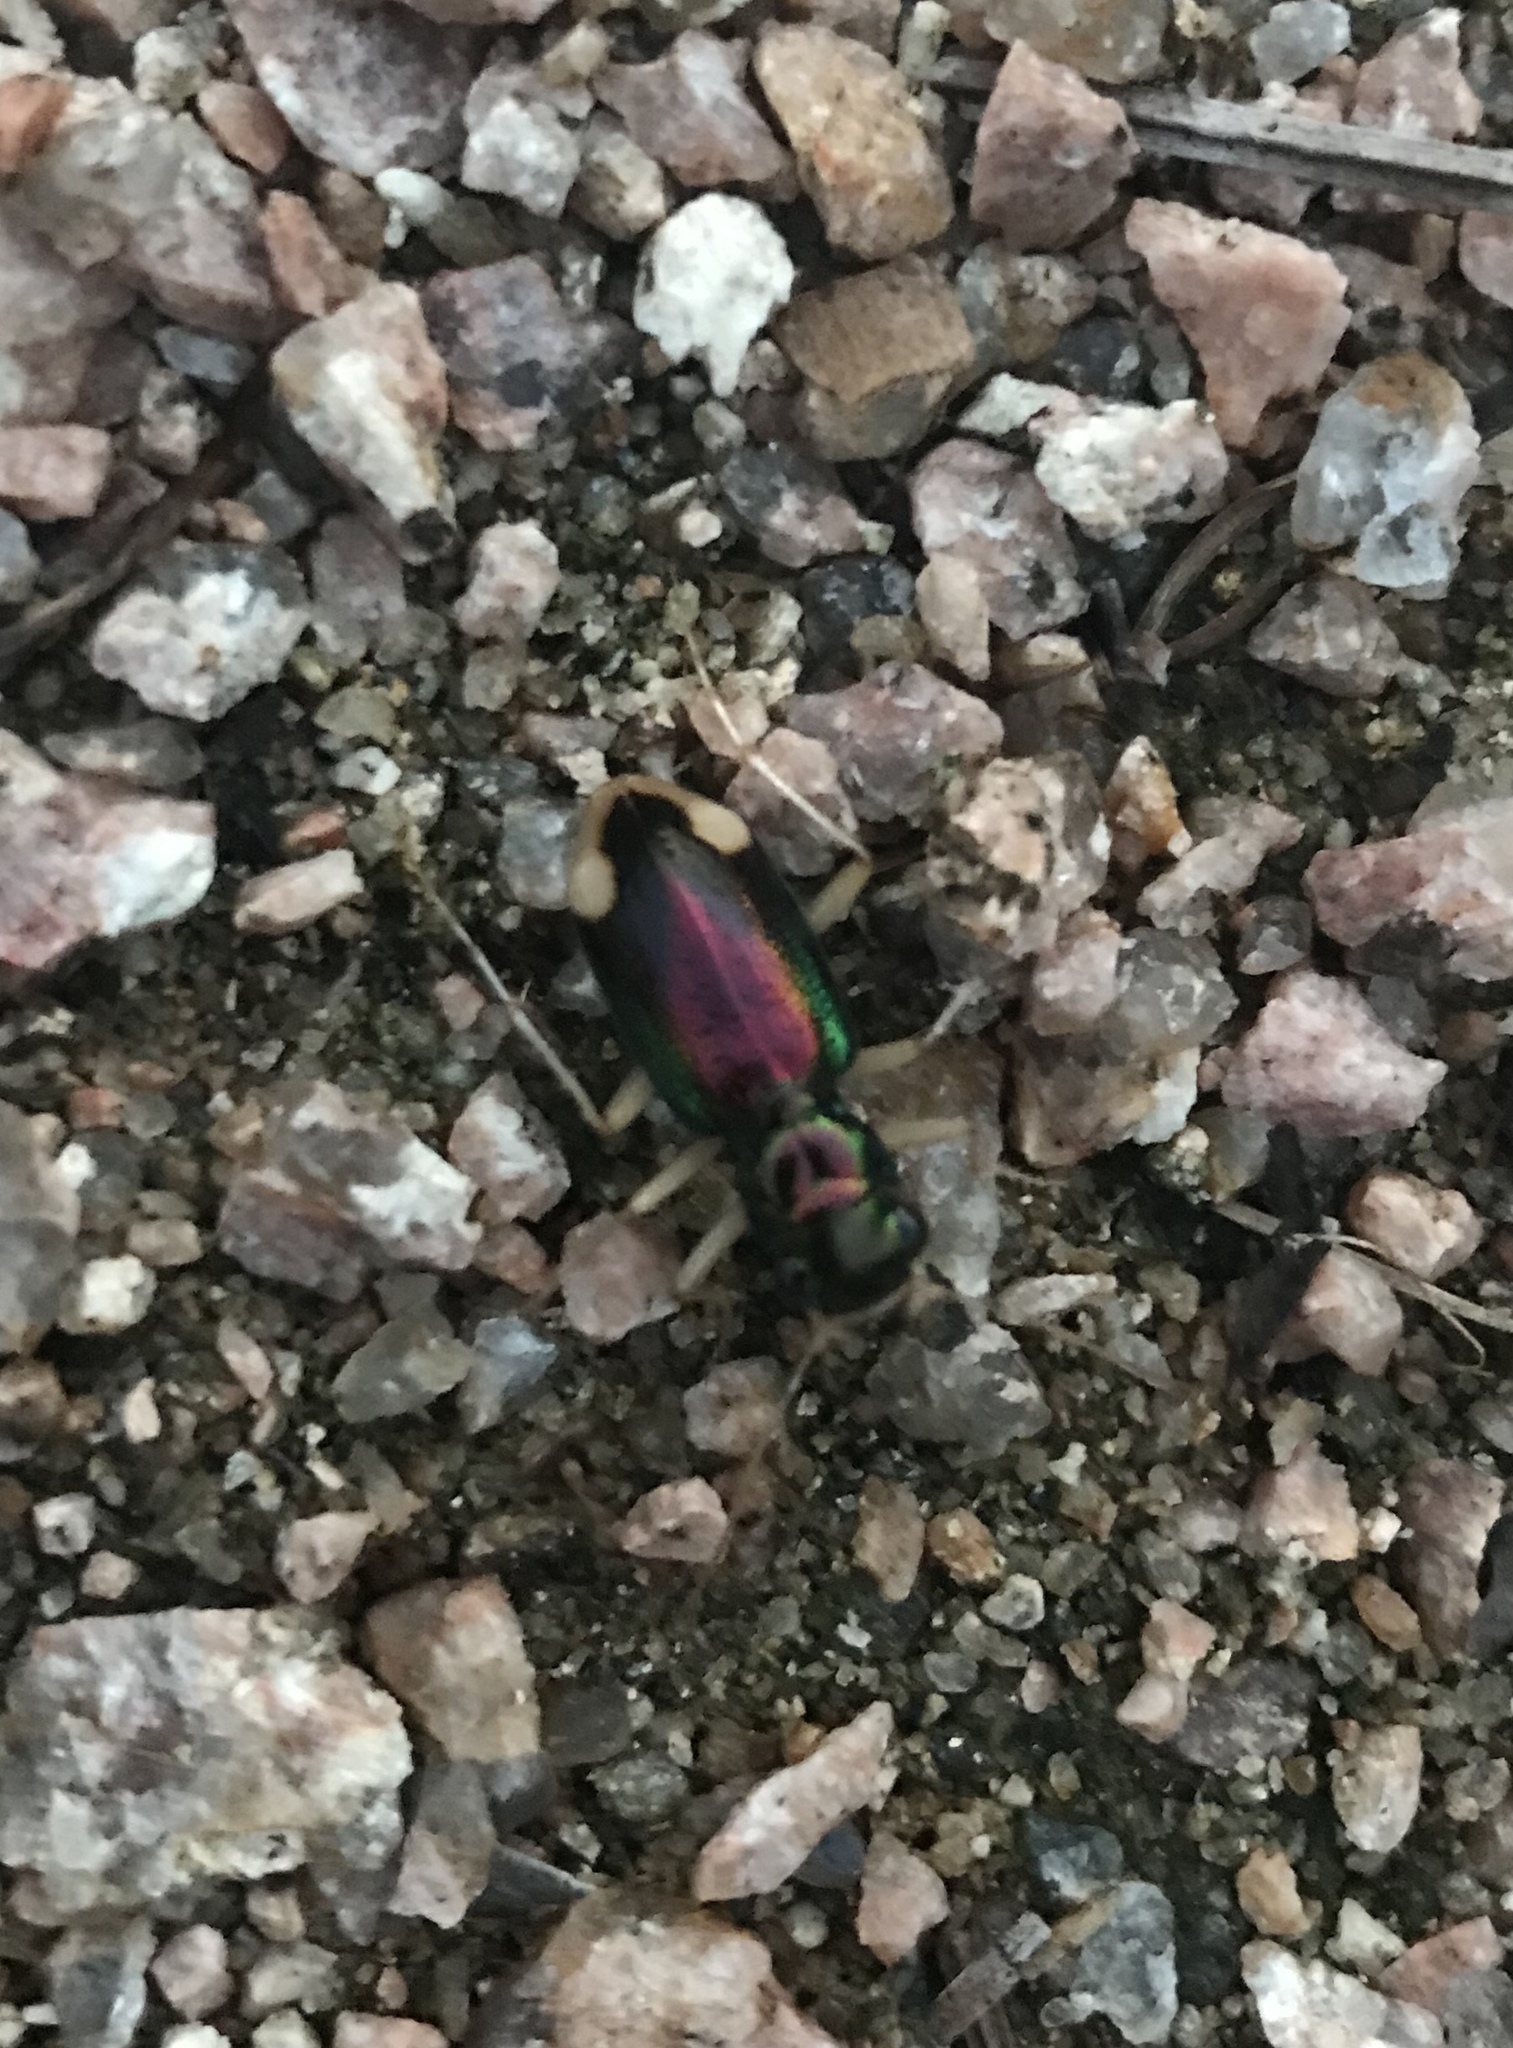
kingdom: Animalia
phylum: Arthropoda
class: Insecta
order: Coleoptera
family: Carabidae
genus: Tetracha
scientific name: Tetracha carolina
